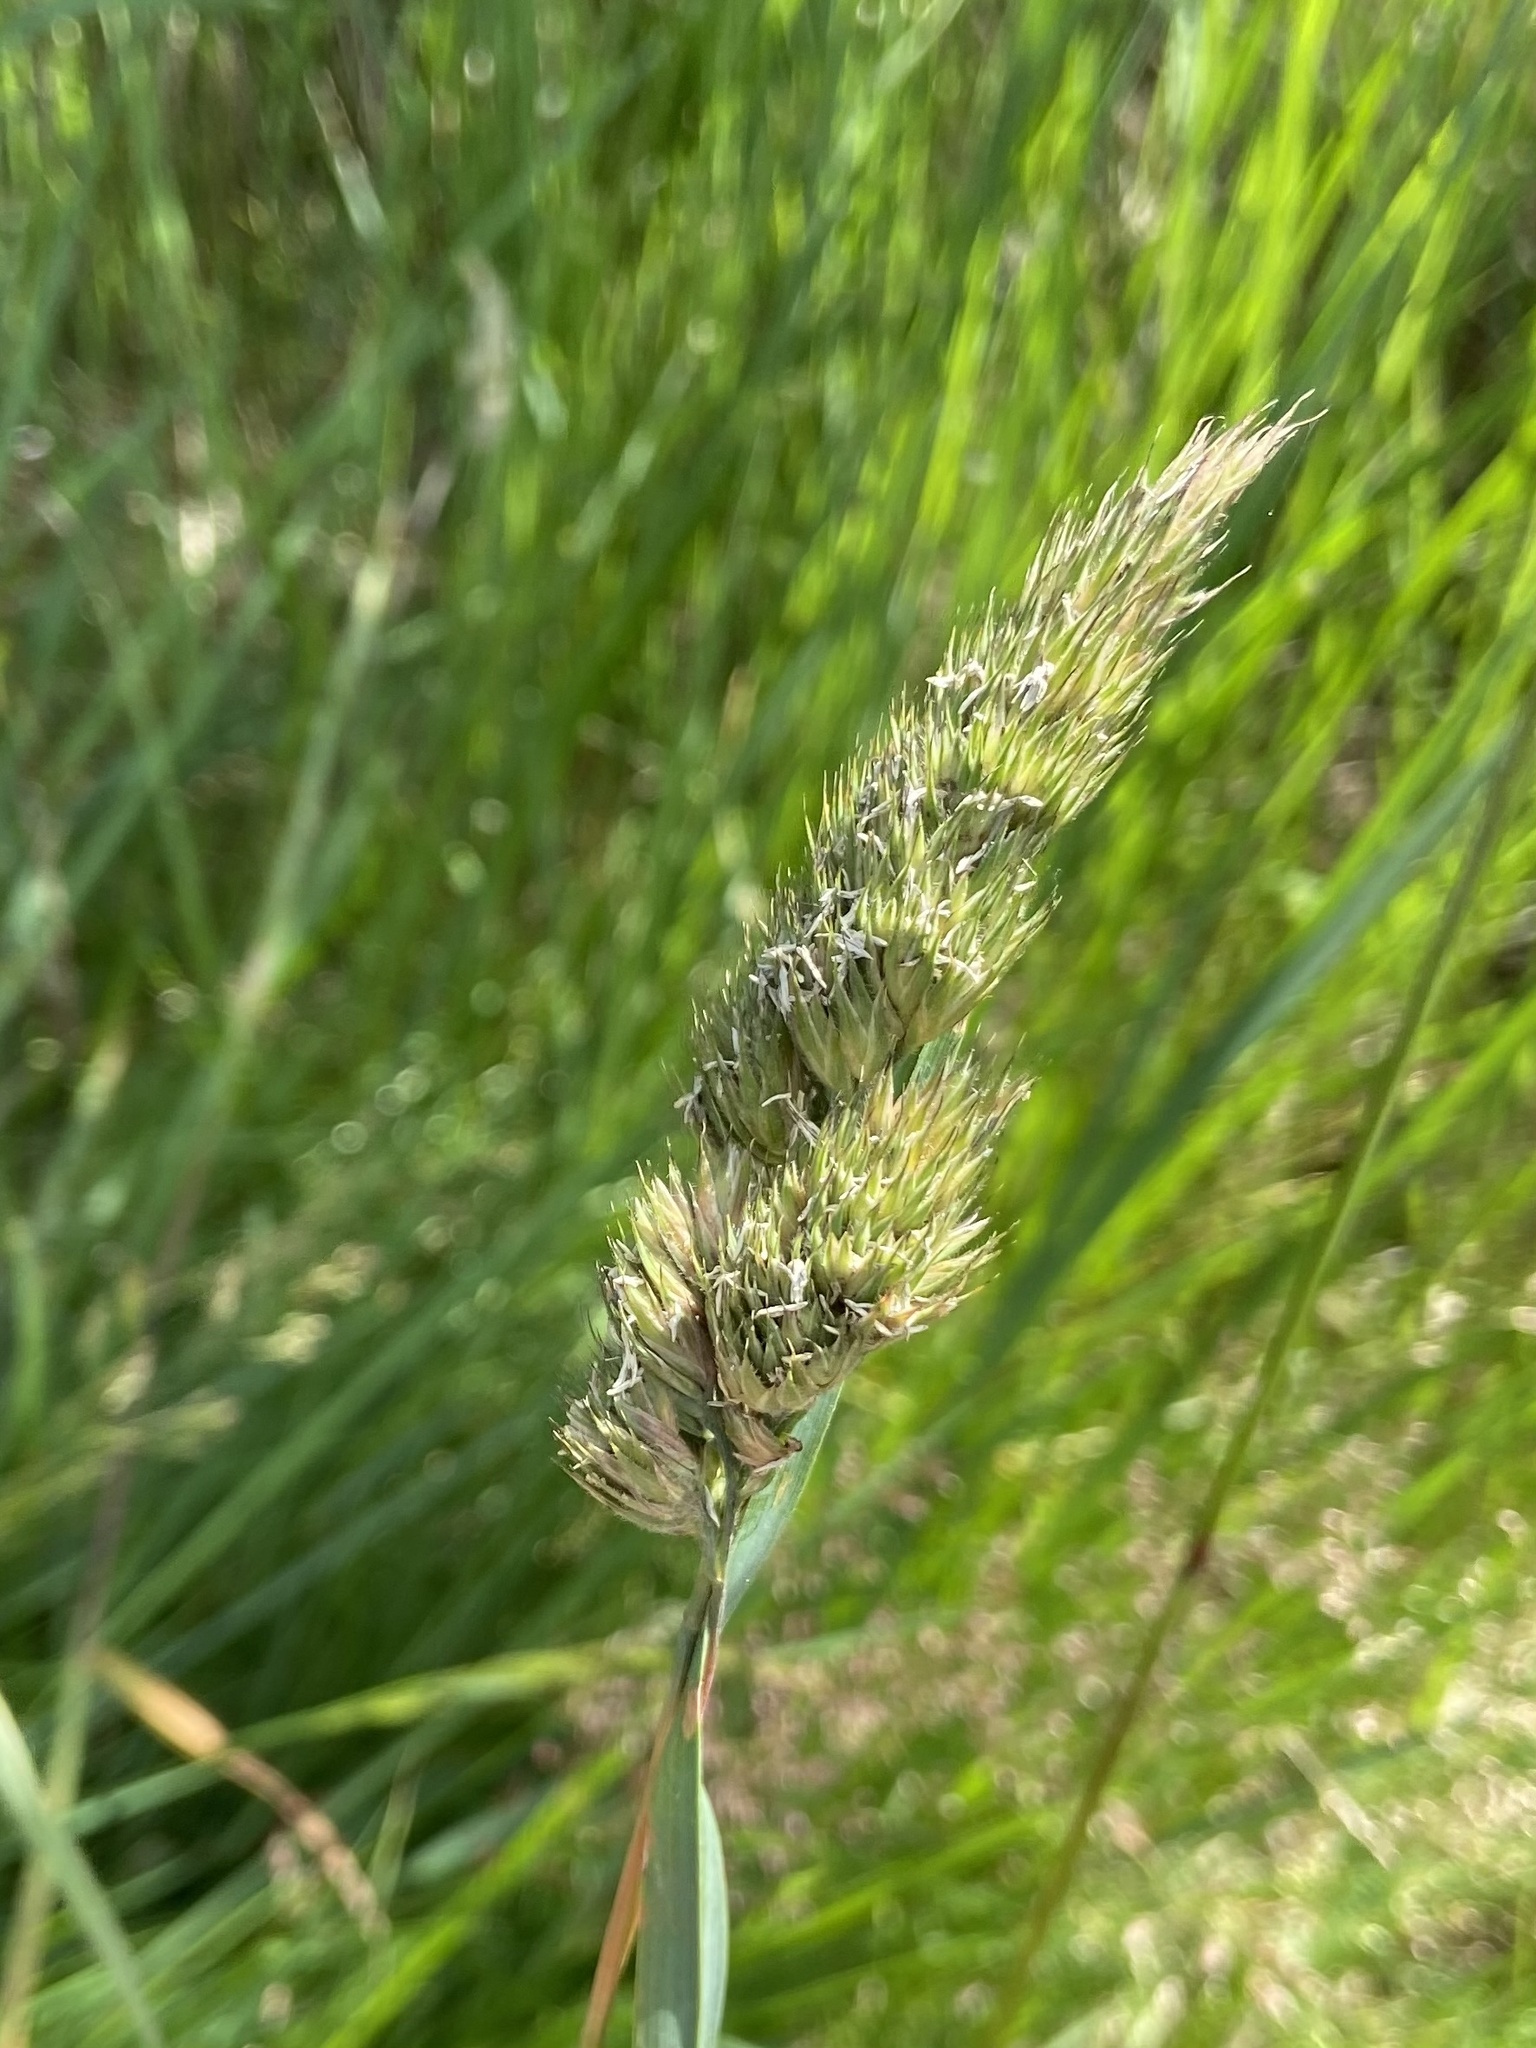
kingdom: Plantae
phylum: Tracheophyta
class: Liliopsida
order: Poales
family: Poaceae
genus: Dactylis
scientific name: Dactylis glomerata
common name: Orchardgrass
